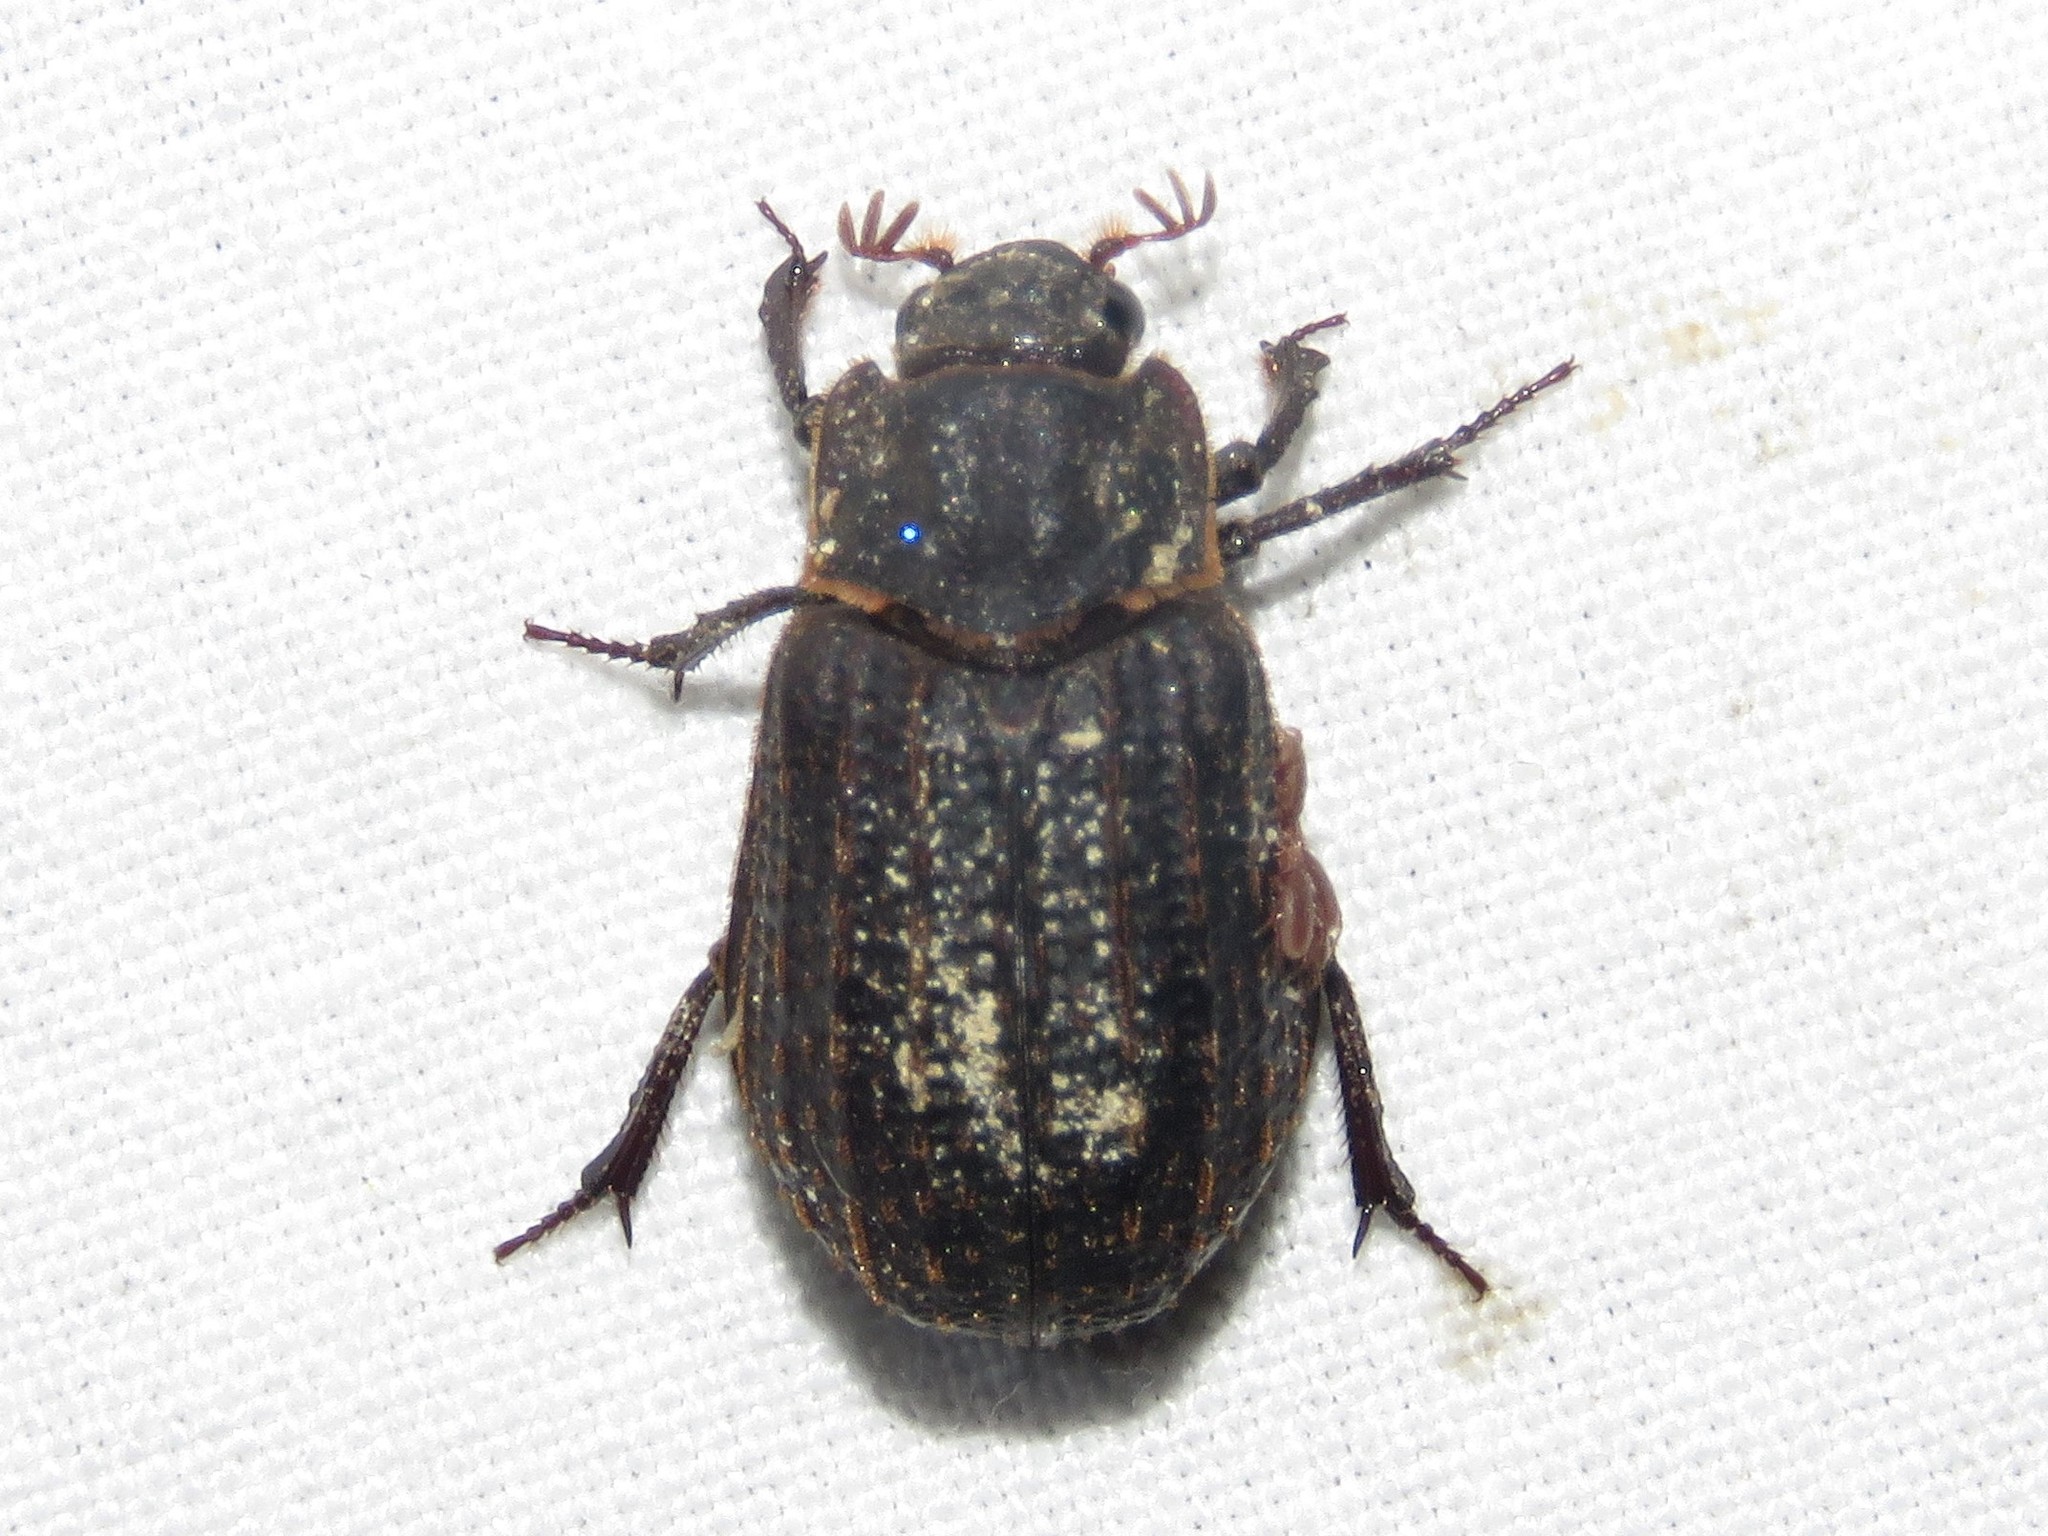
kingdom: Animalia
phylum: Arthropoda
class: Insecta
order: Coleoptera
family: Trogidae
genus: Trox
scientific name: Trox scaber
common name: Hide beetle
